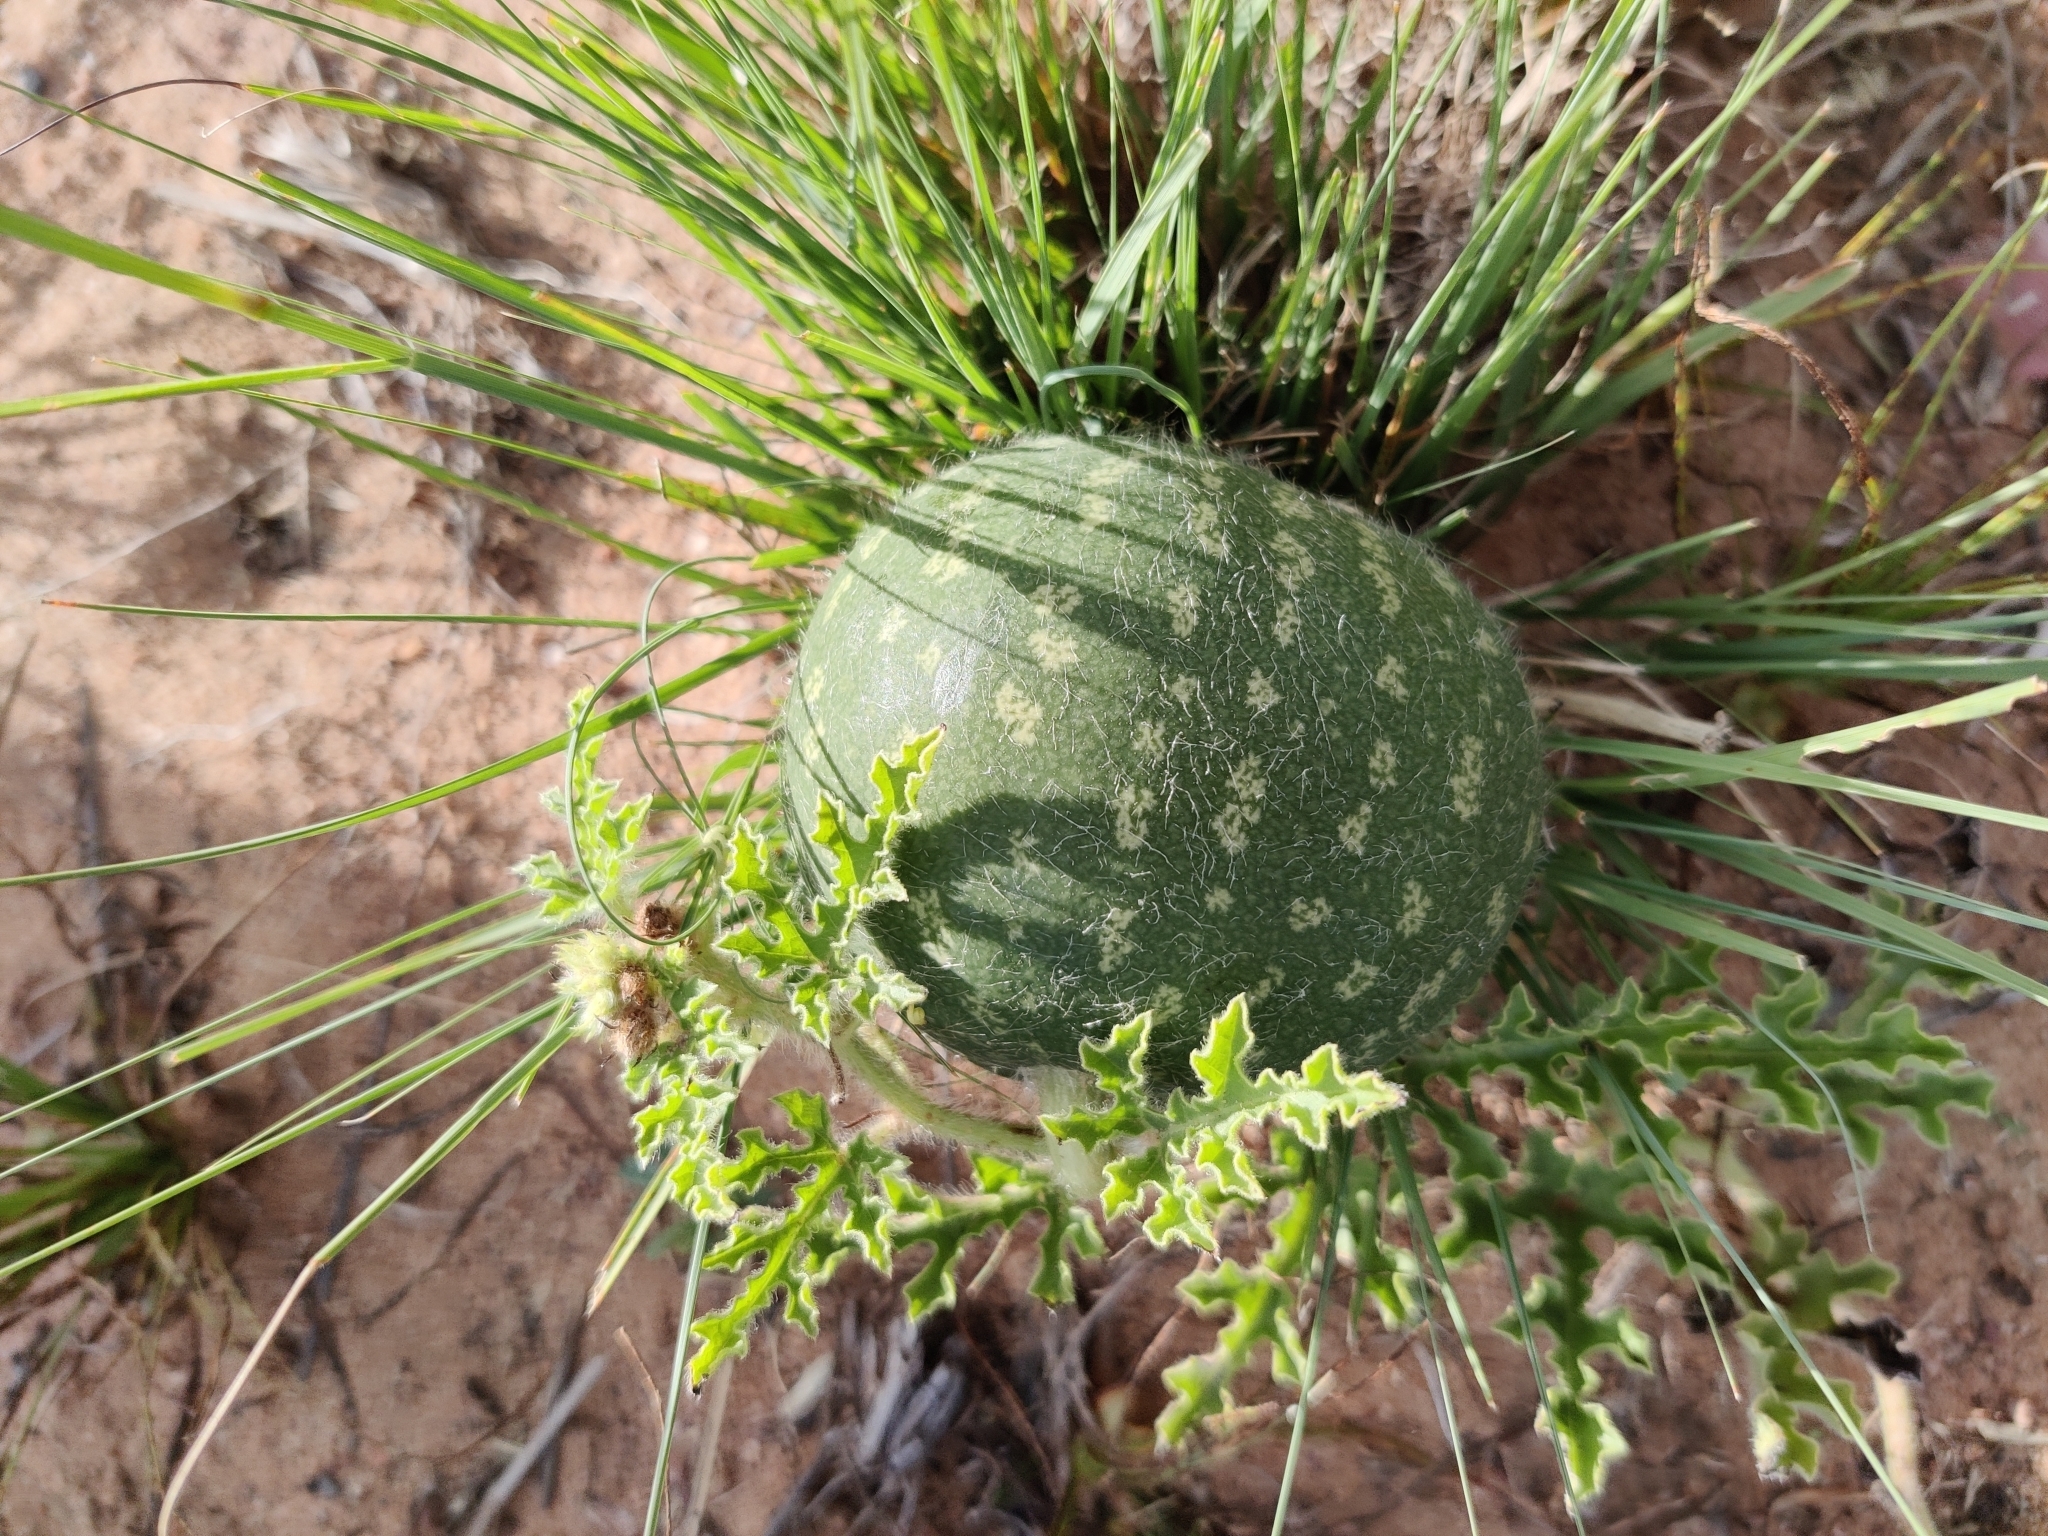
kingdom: Plantae
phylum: Tracheophyta
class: Magnoliopsida
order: Cucurbitales
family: Cucurbitaceae
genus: Citrullus
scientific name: Citrullus amarus
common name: Fodder-melon
